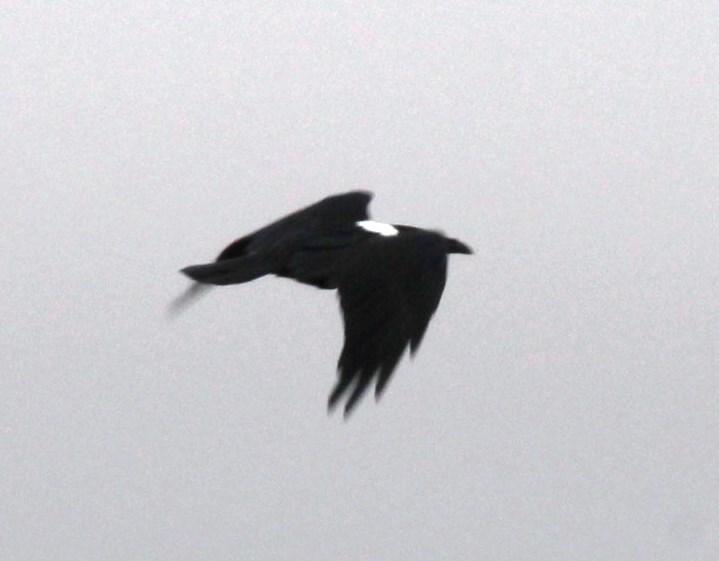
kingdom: Animalia
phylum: Chordata
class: Aves
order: Passeriformes
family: Corvidae
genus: Corvus
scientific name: Corvus albus
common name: Pied crow
